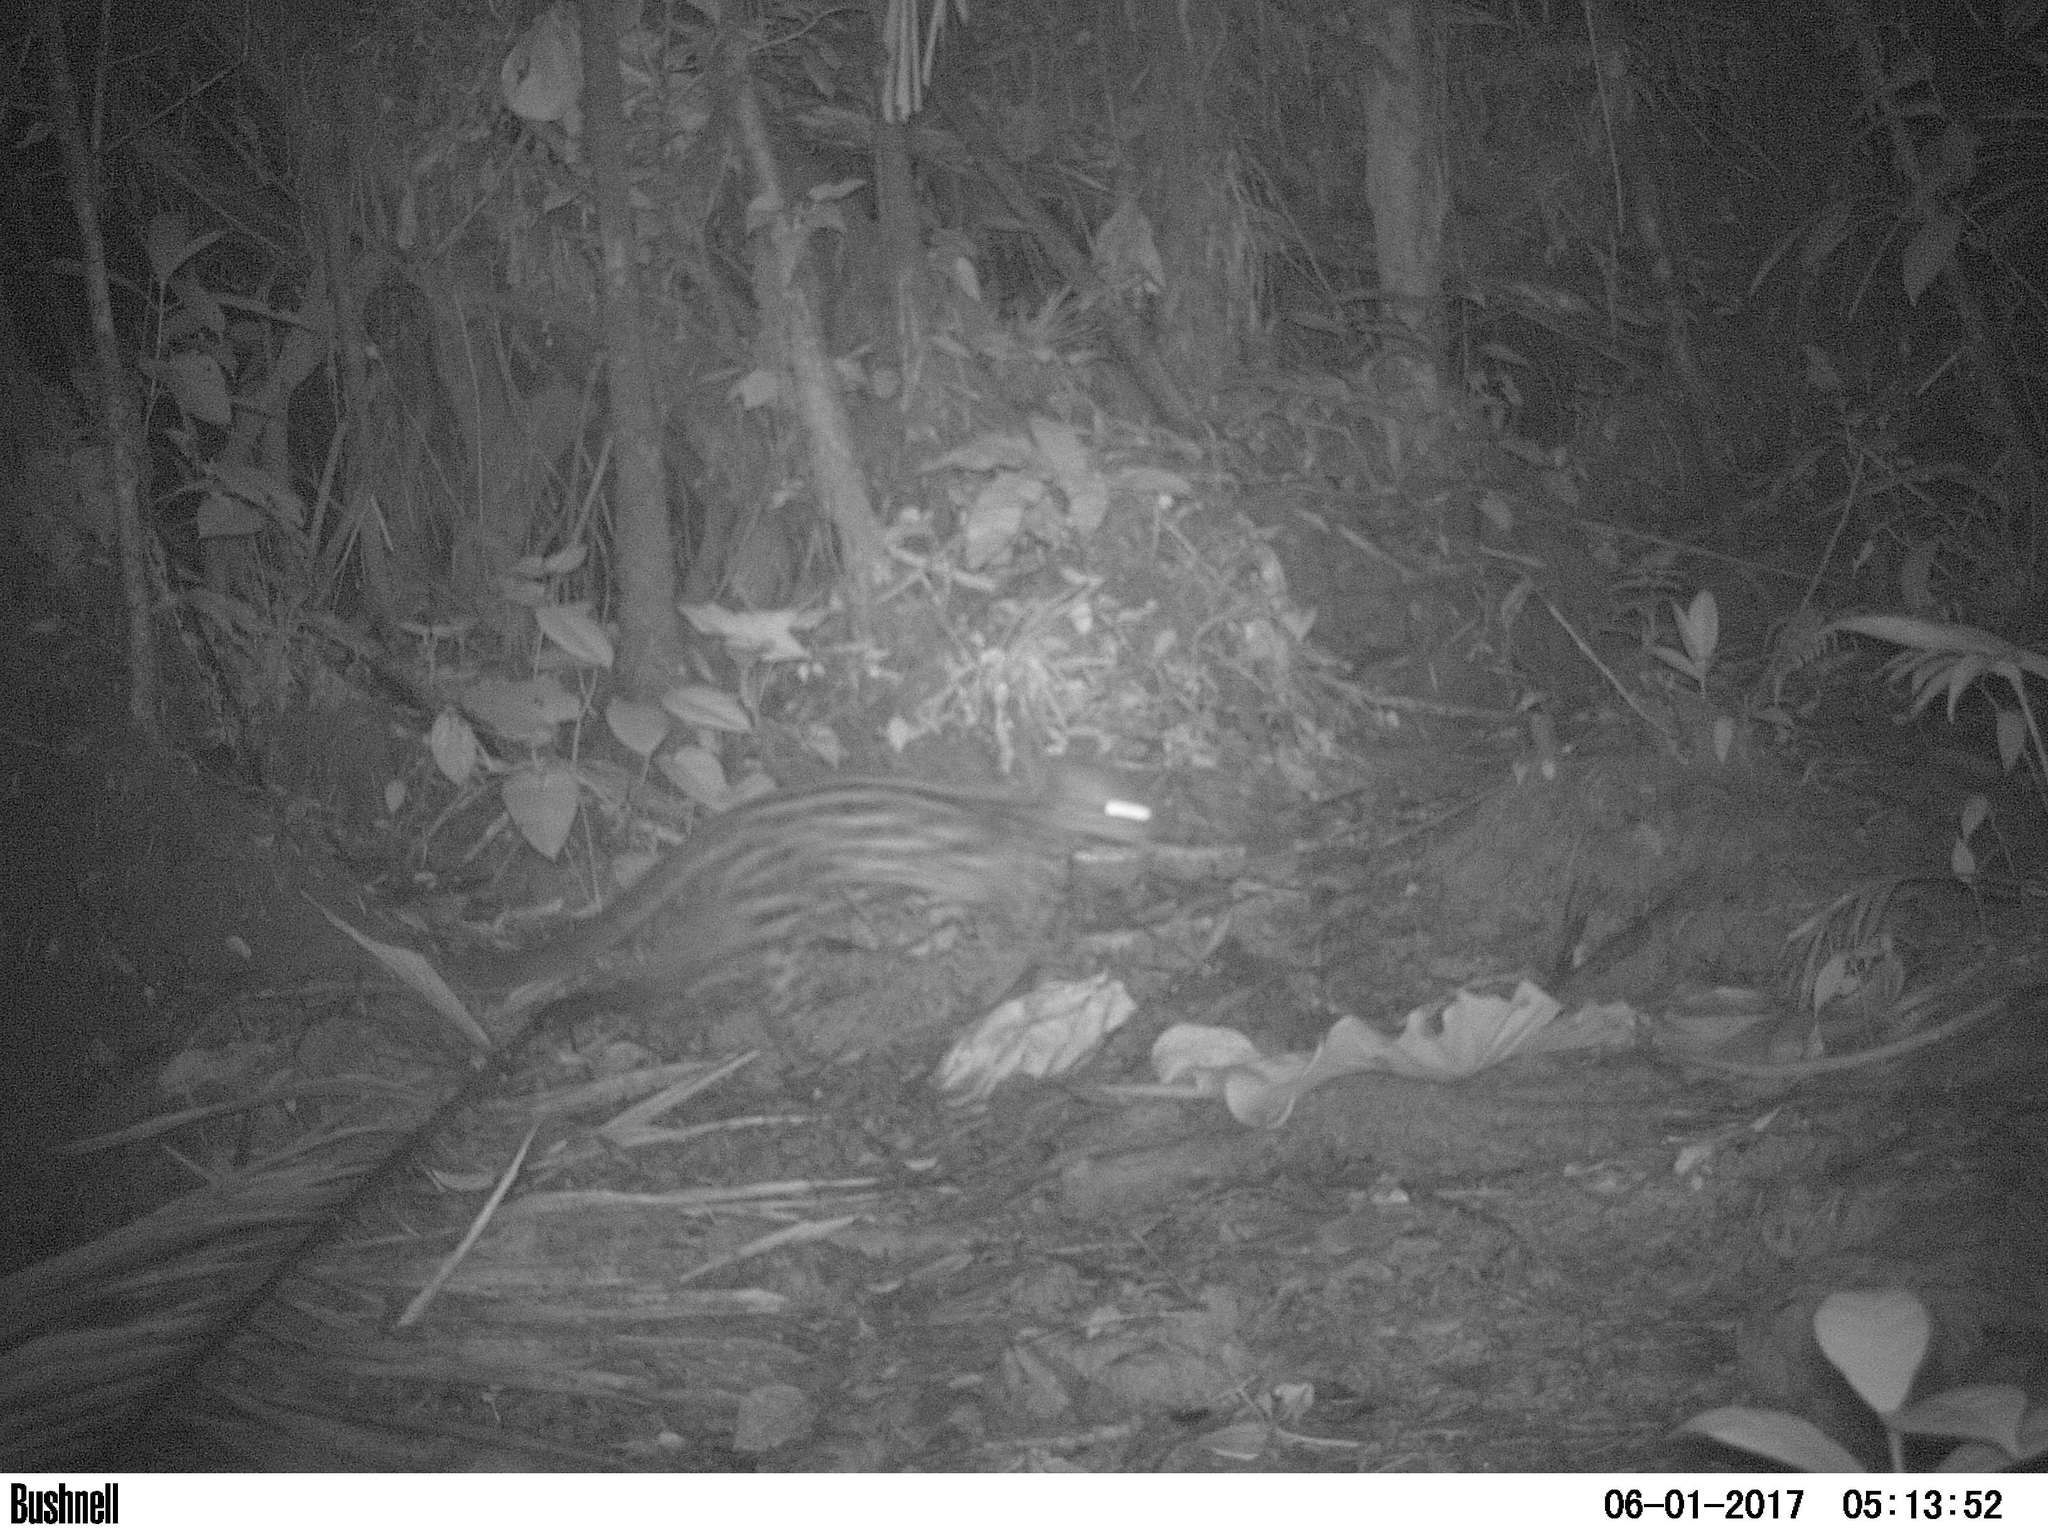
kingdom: Animalia
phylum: Chordata
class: Mammalia
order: Carnivora
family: Felidae
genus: Leopardus
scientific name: Leopardus wiedii
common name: Margay
